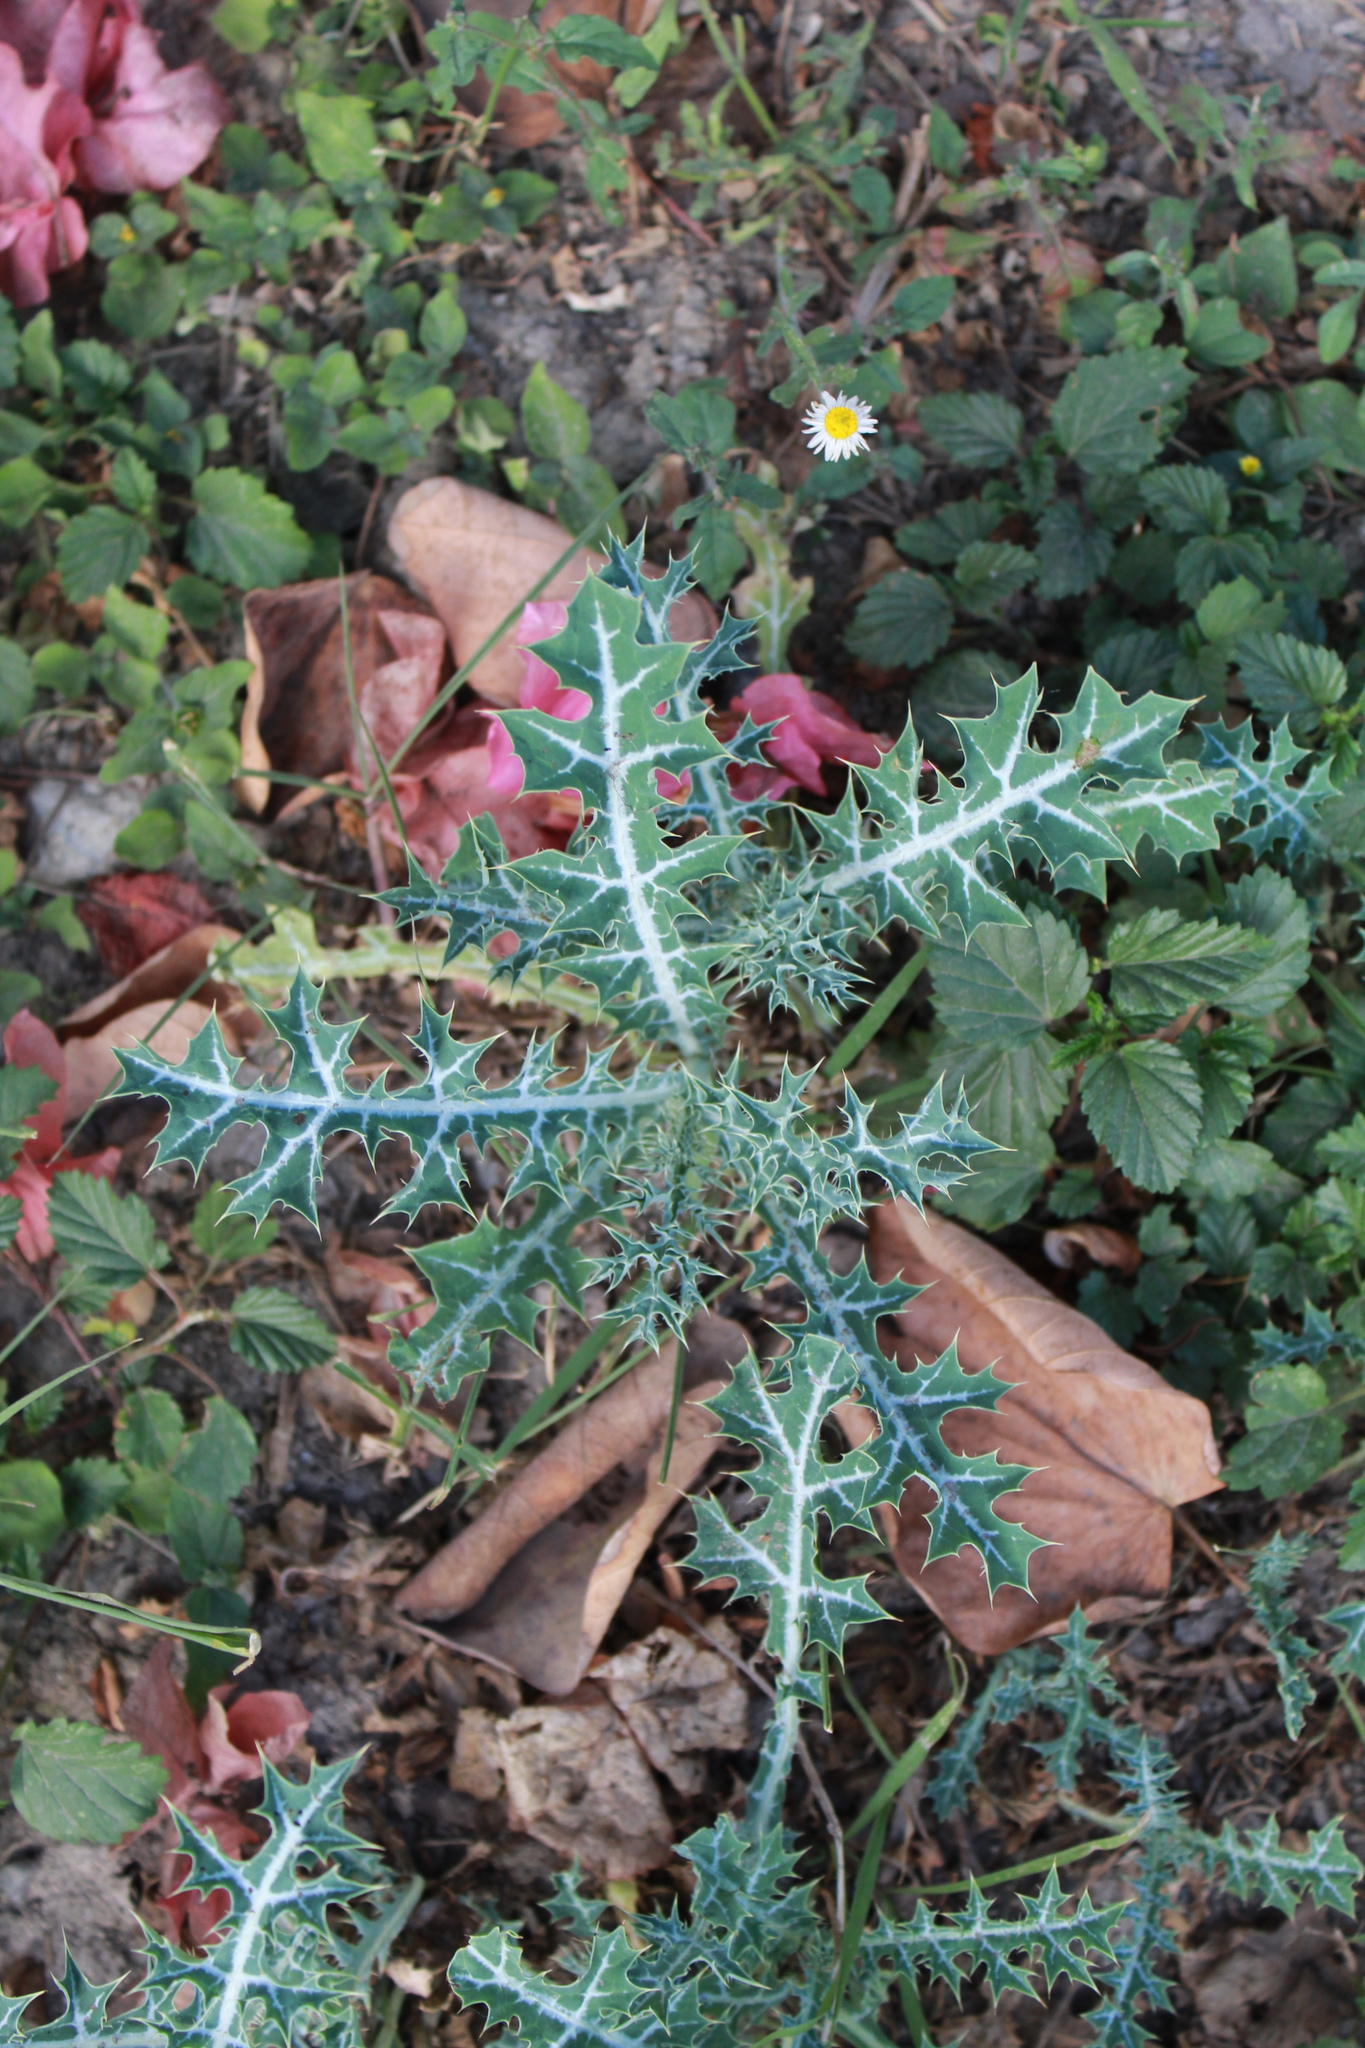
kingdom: Plantae
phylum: Tracheophyta
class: Magnoliopsida
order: Ranunculales
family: Papaveraceae
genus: Argemone
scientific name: Argemone mexicana
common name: Mexican poppy
